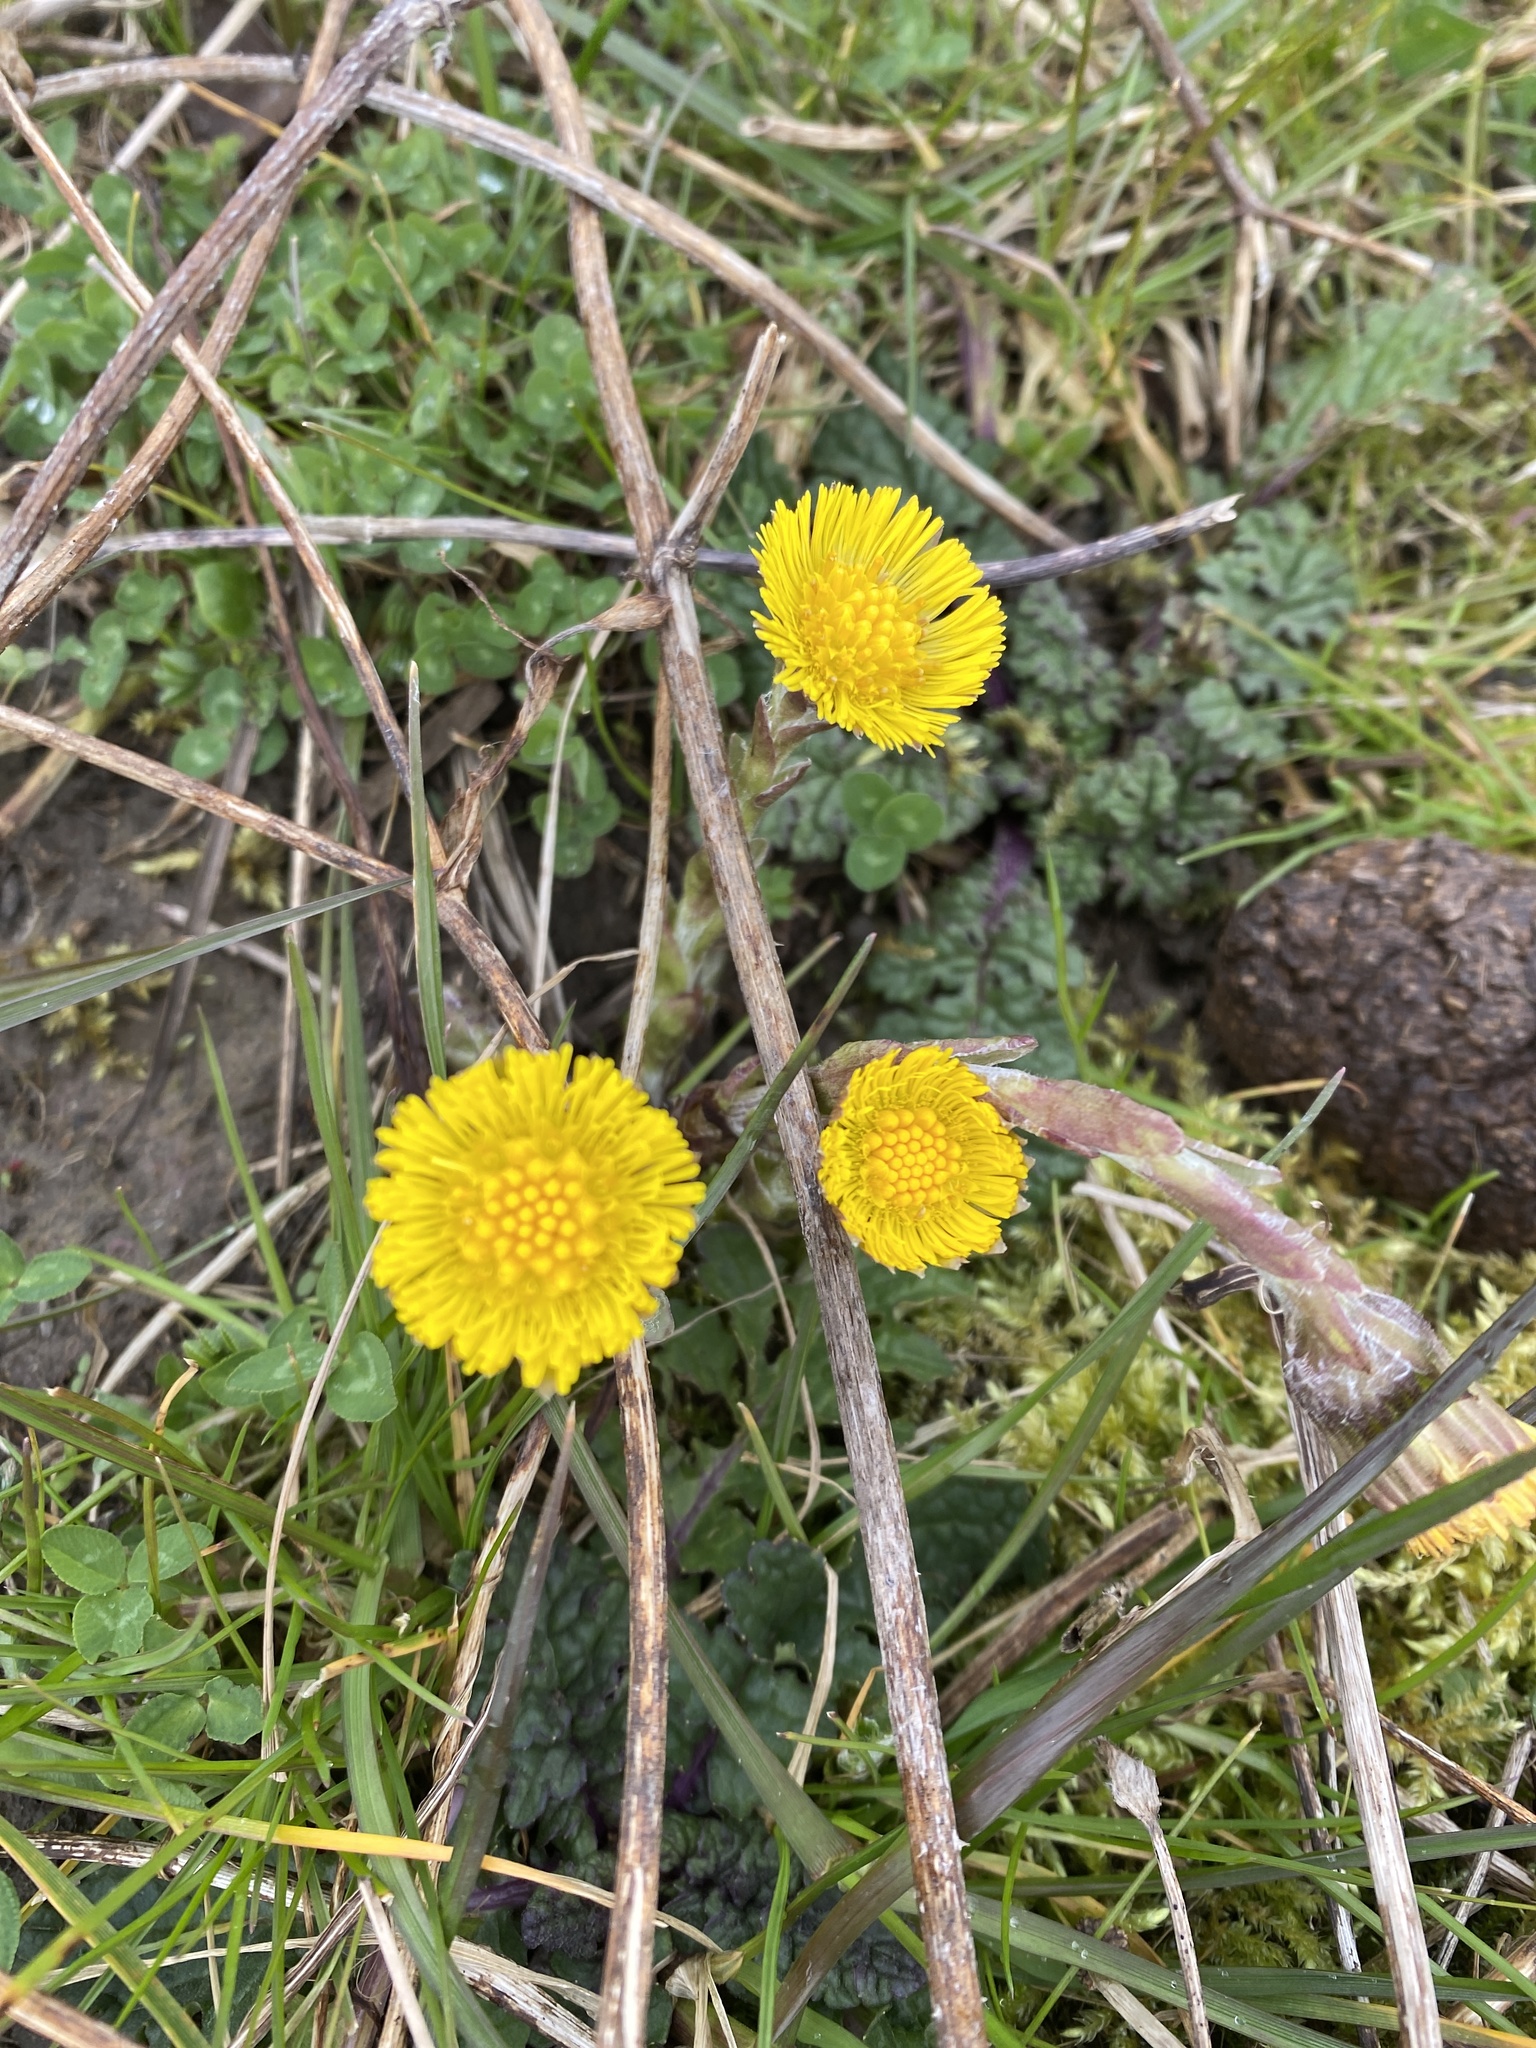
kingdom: Plantae
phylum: Tracheophyta
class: Magnoliopsida
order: Asterales
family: Asteraceae
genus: Tussilago
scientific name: Tussilago farfara
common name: Coltsfoot
